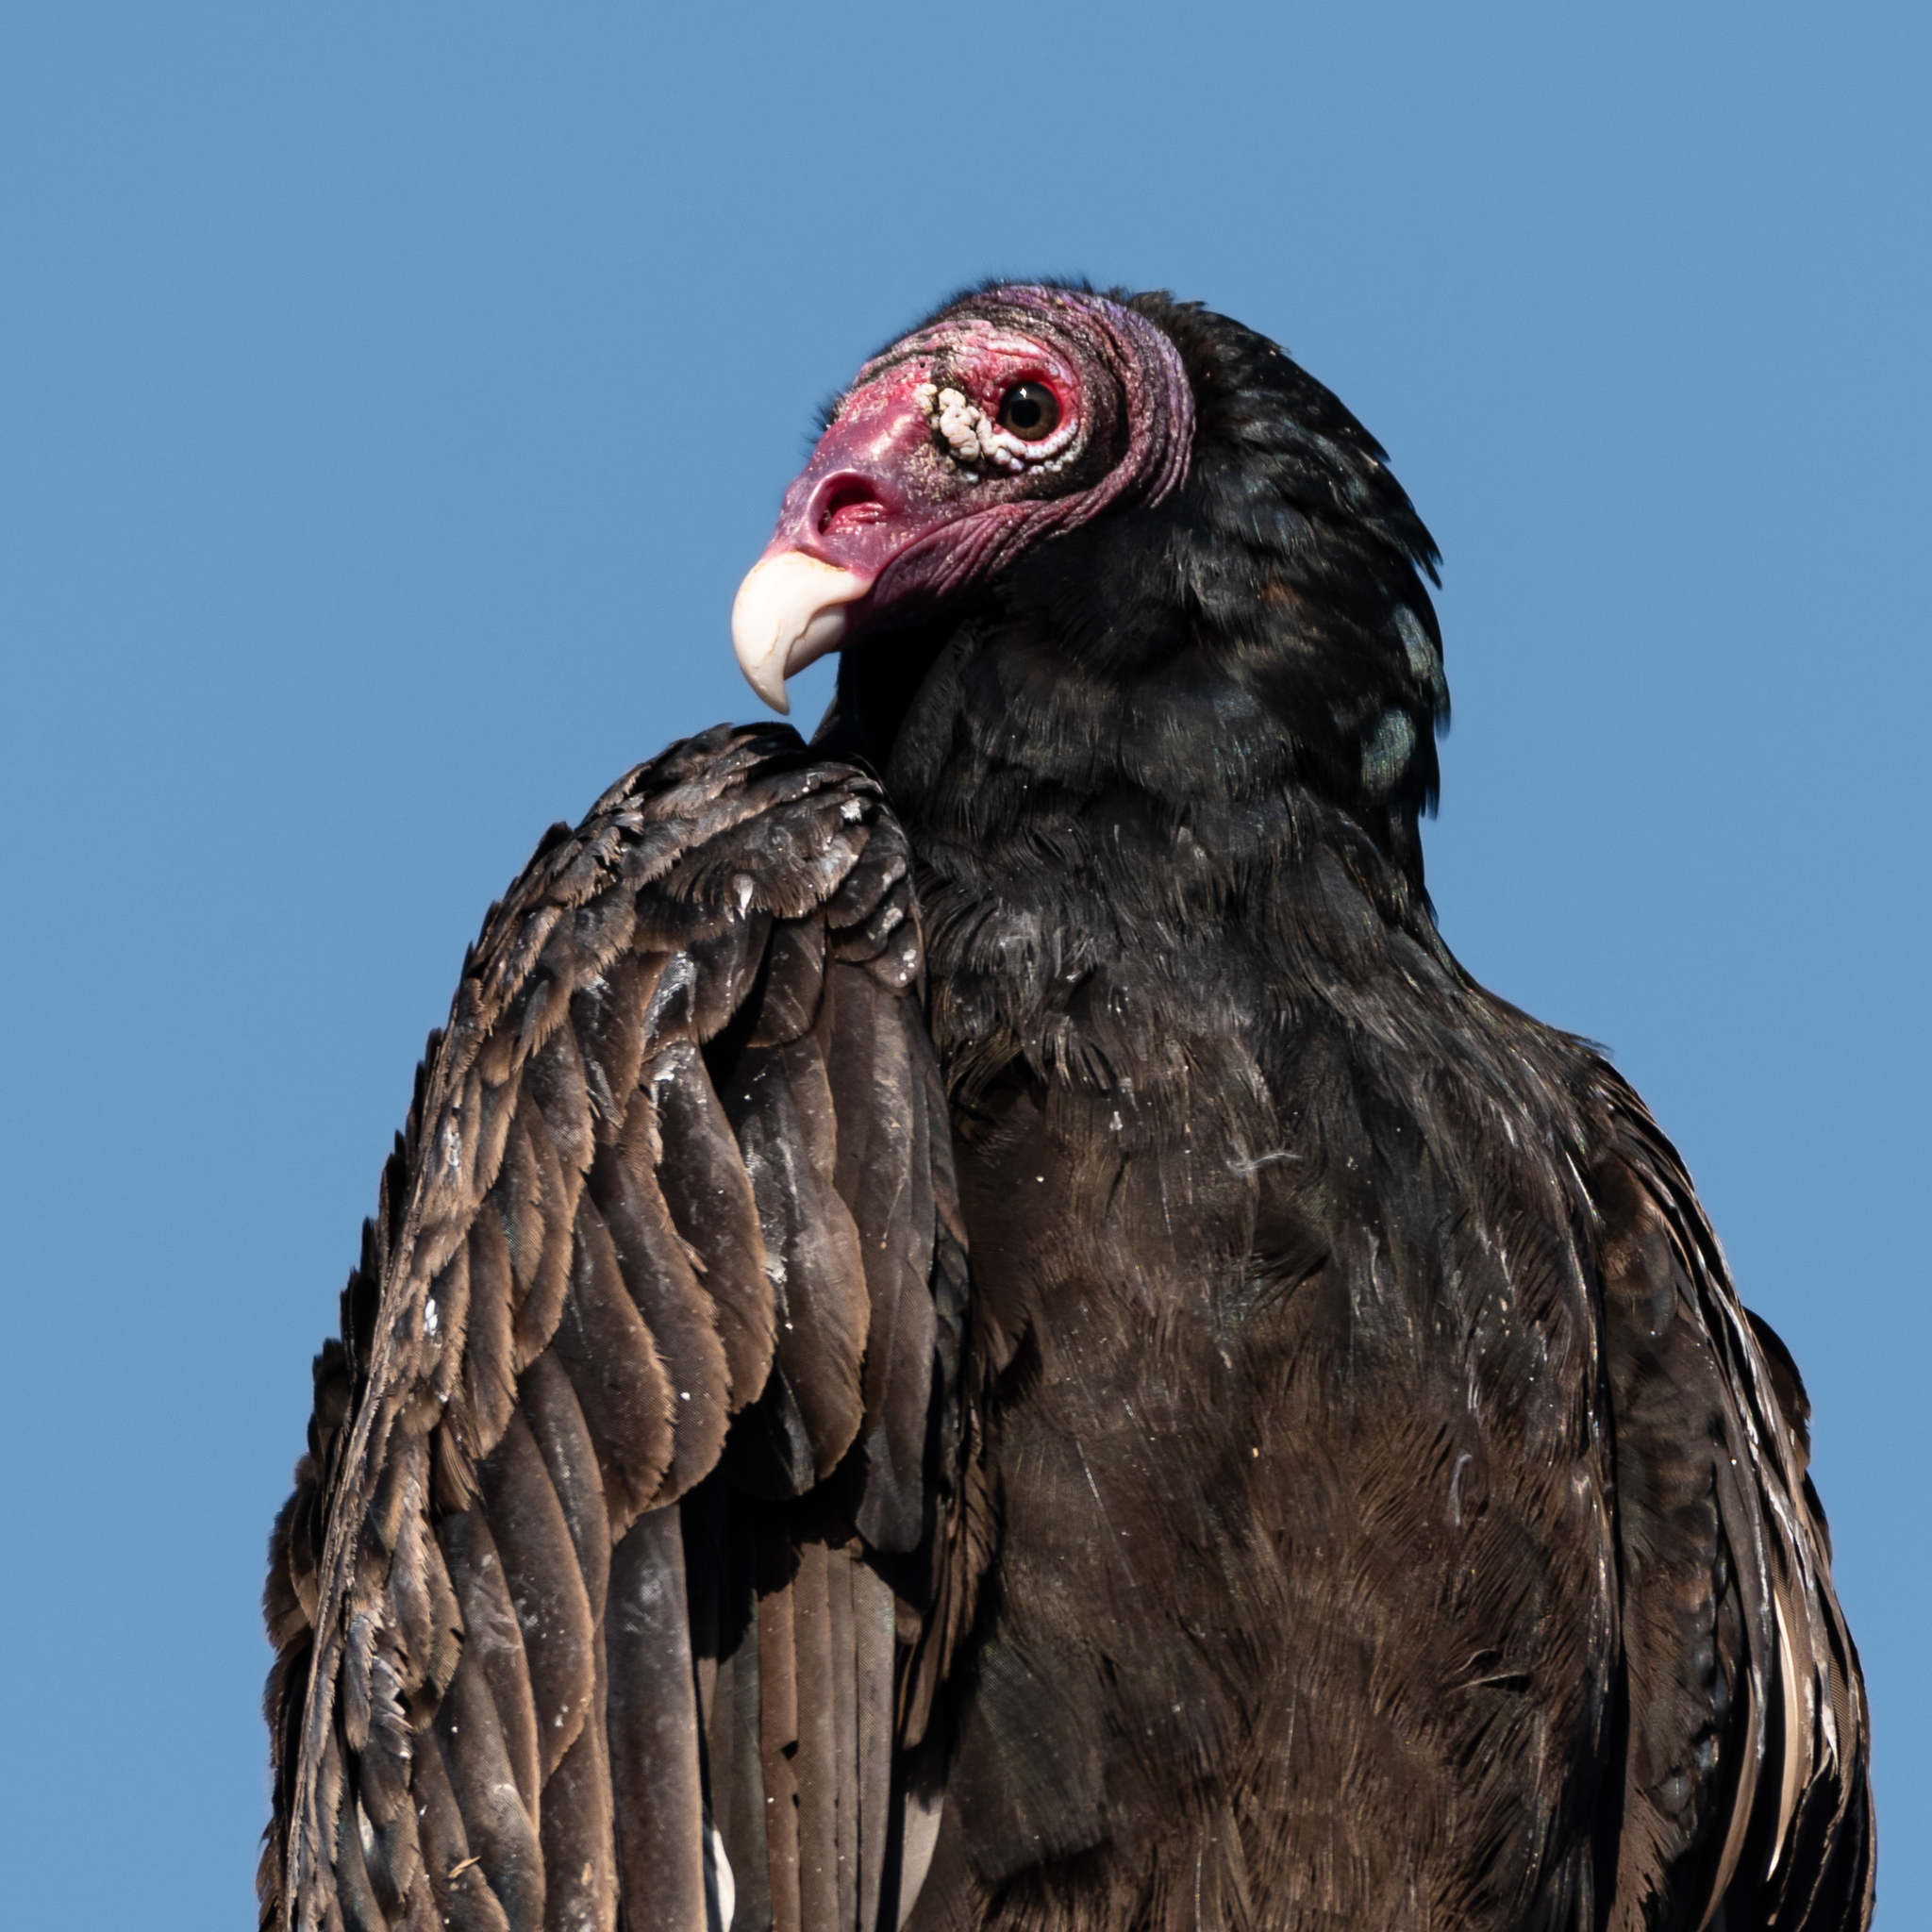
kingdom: Animalia
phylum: Chordata
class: Aves
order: Accipitriformes
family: Cathartidae
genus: Cathartes
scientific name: Cathartes aura
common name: Turkey vulture
